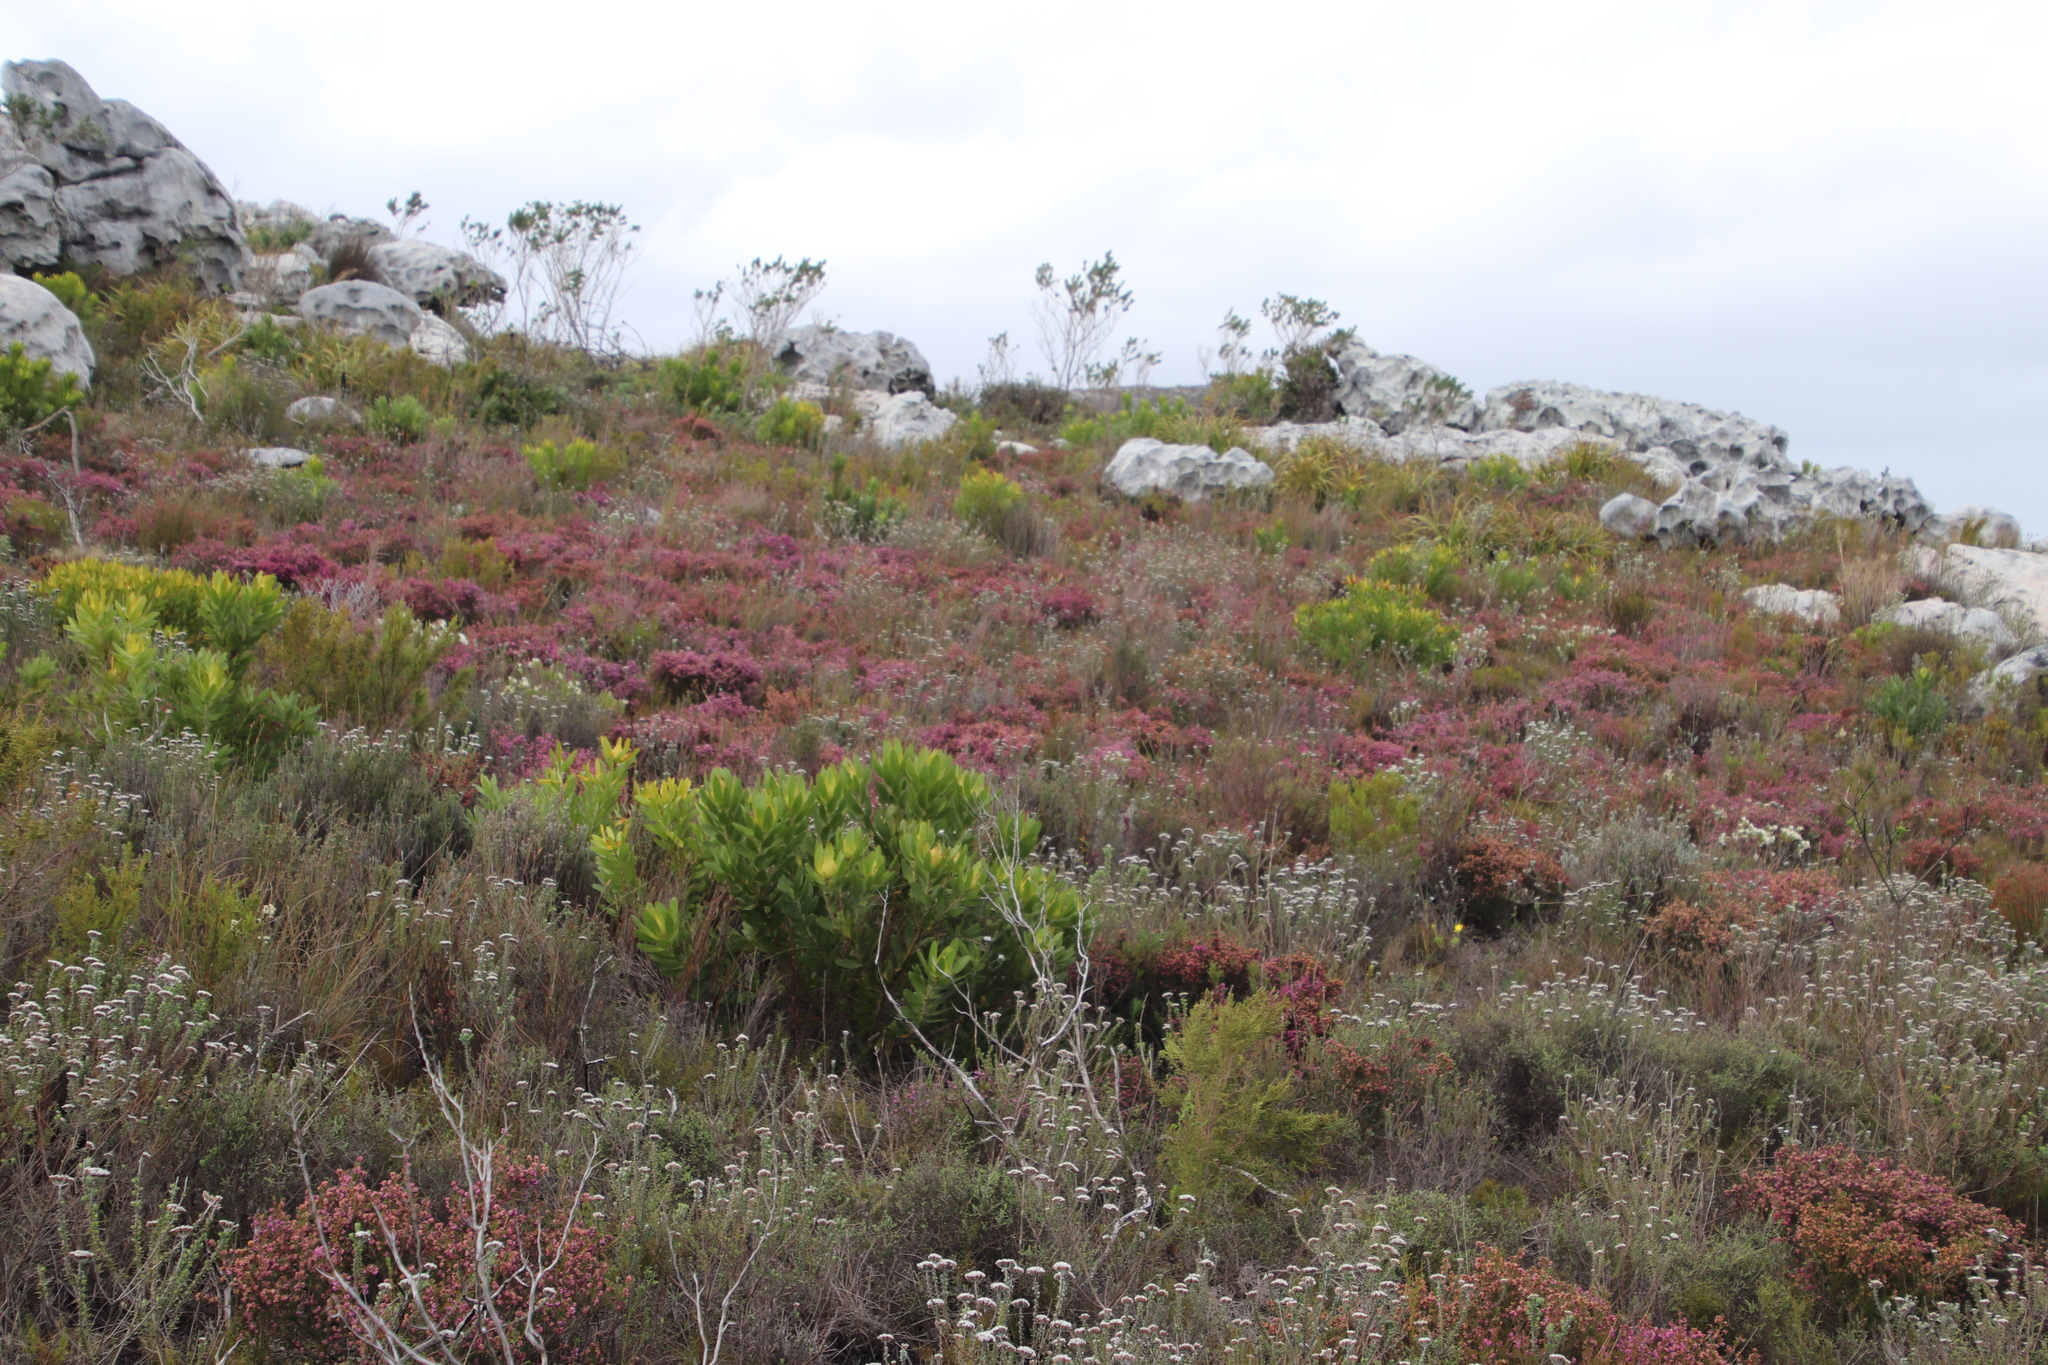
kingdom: Plantae
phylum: Tracheophyta
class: Magnoliopsida
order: Ericales
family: Ericaceae
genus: Erica
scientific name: Erica glabella
